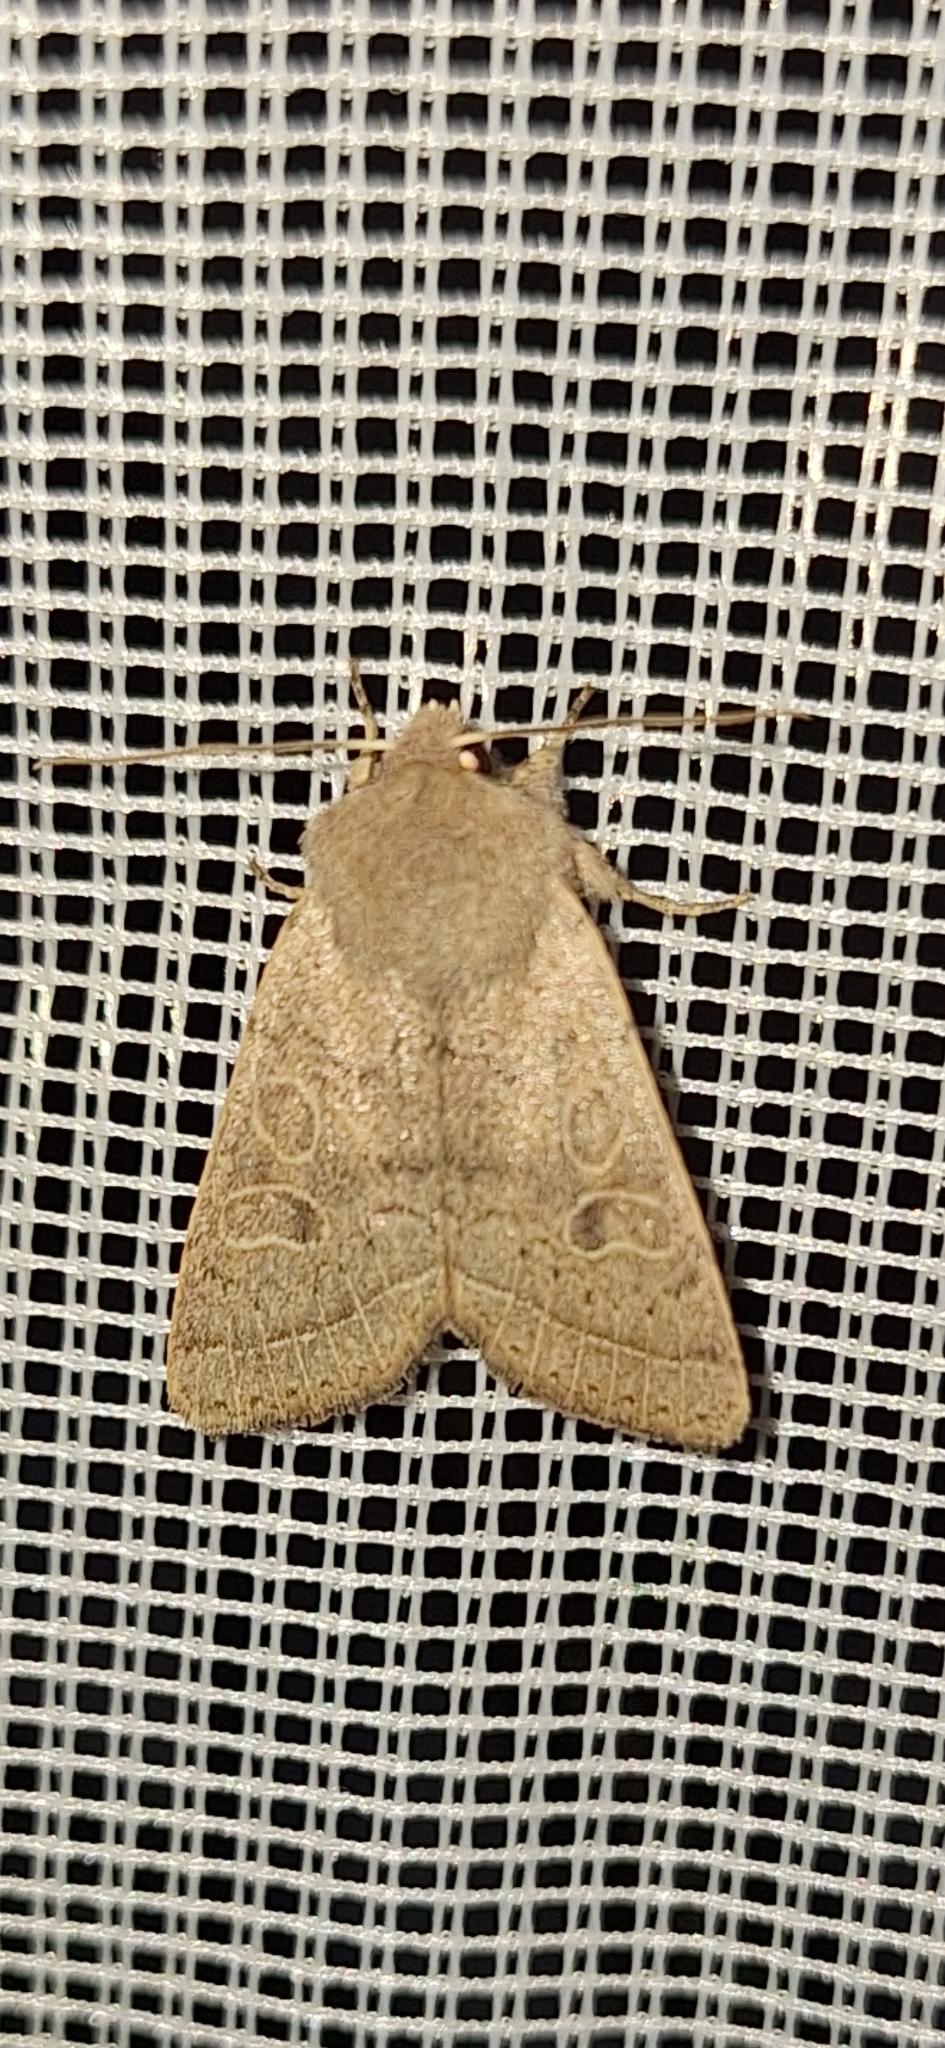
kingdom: Animalia
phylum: Arthropoda
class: Insecta
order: Lepidoptera
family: Noctuidae
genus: Orthosia
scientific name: Orthosia cerasi
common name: Common quaker
